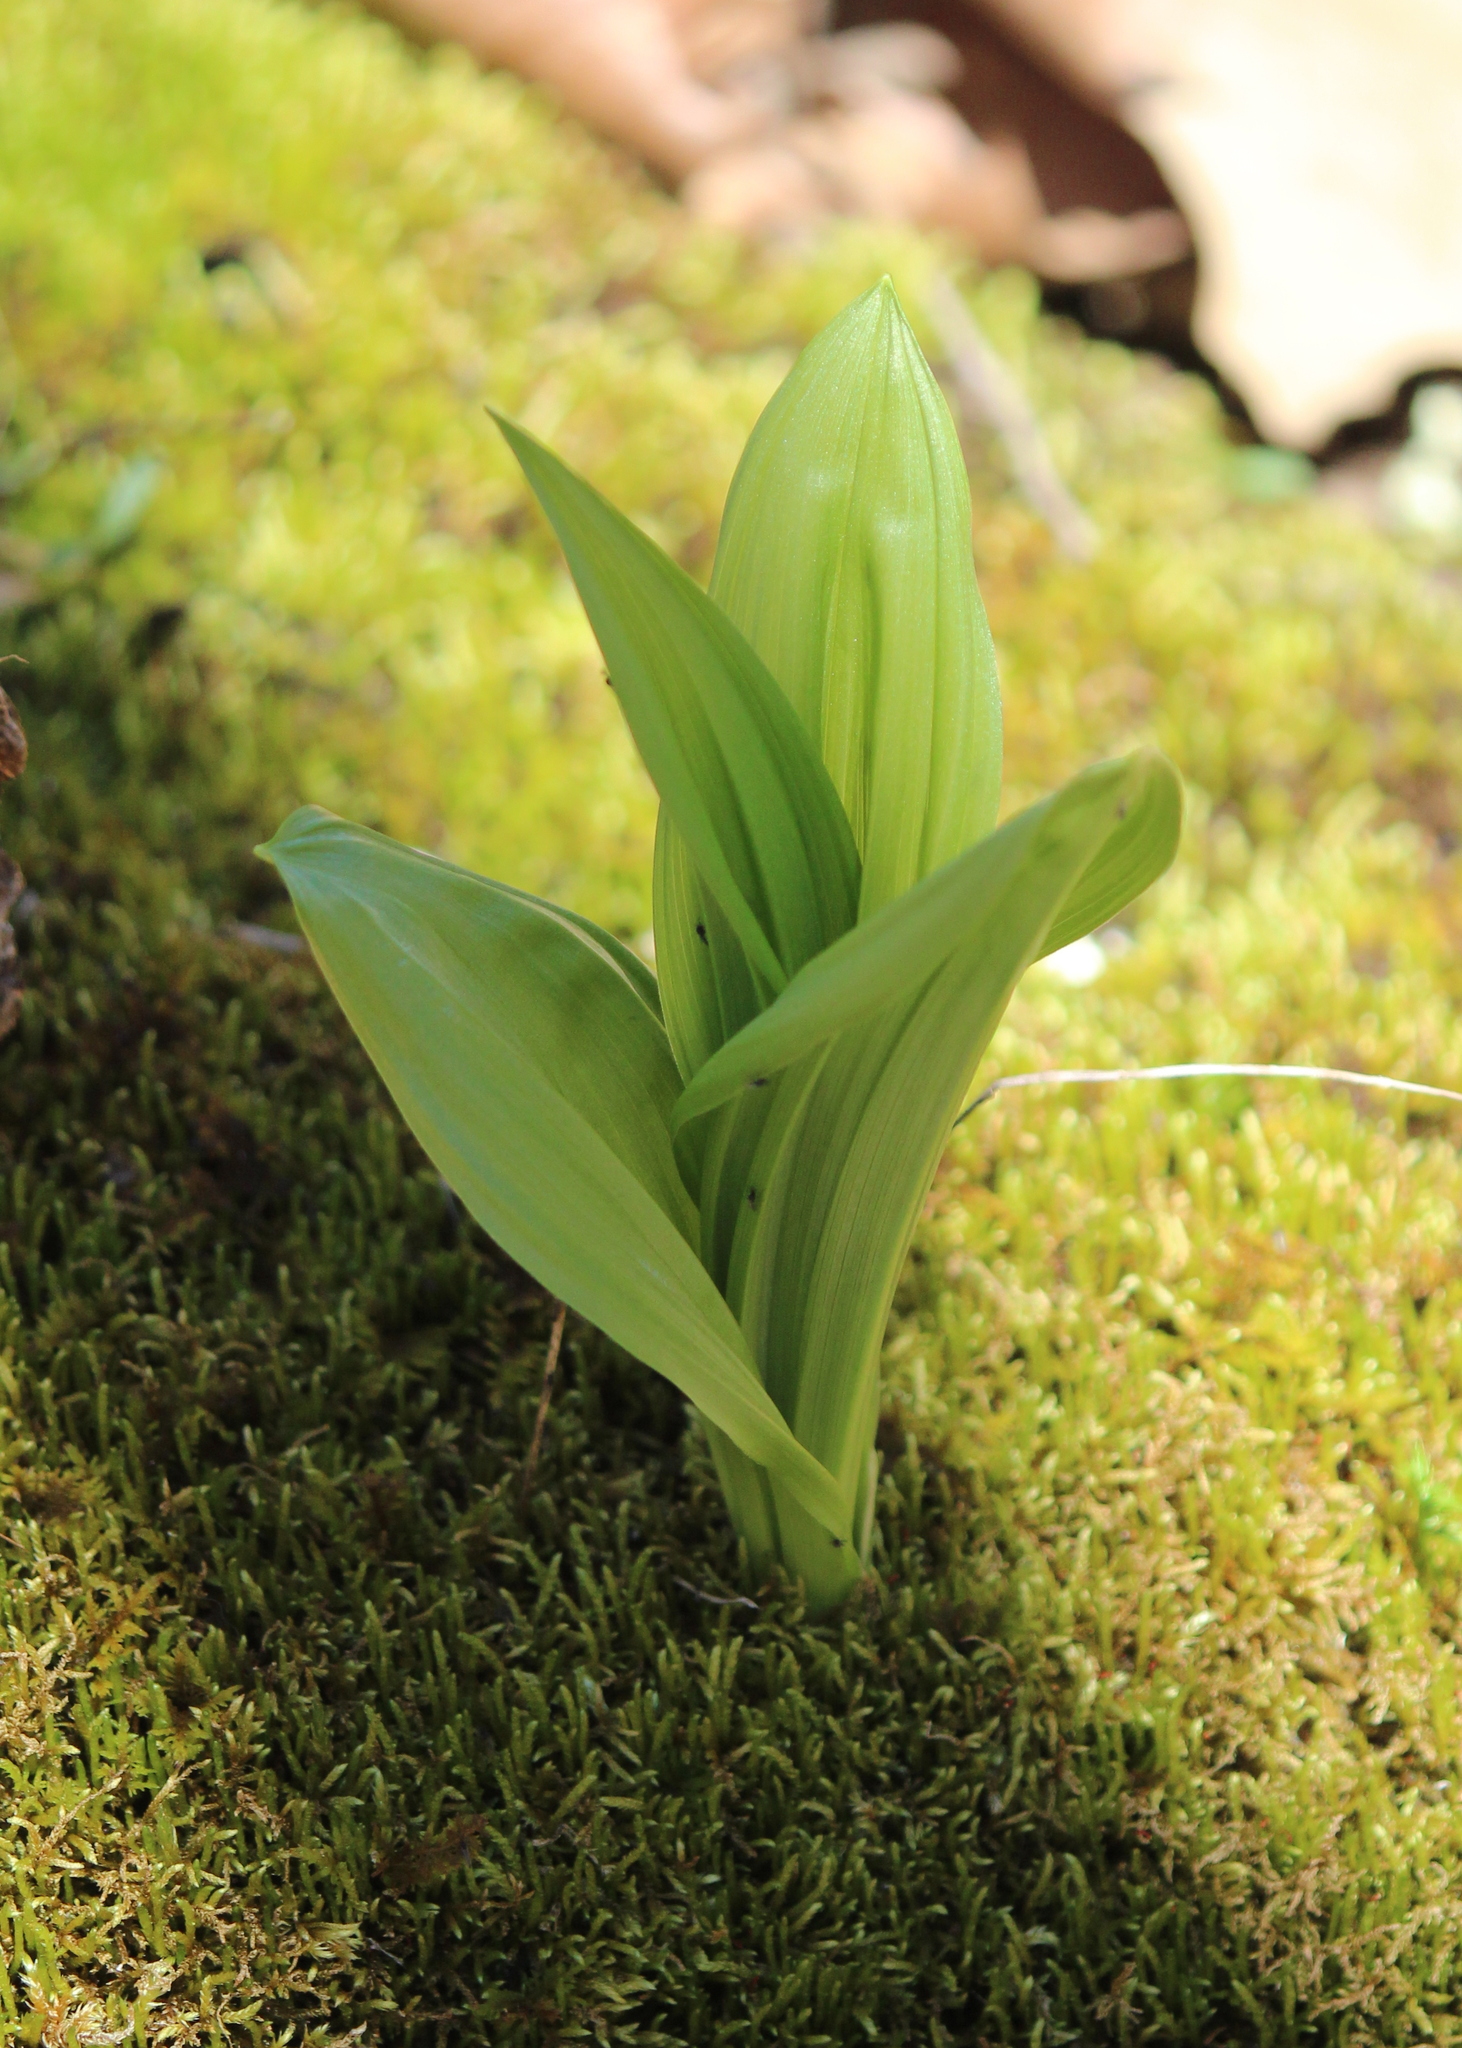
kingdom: Plantae
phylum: Tracheophyta
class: Liliopsida
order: Liliales
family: Melanthiaceae
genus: Veratrum
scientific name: Veratrum viride
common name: American false hellebore
